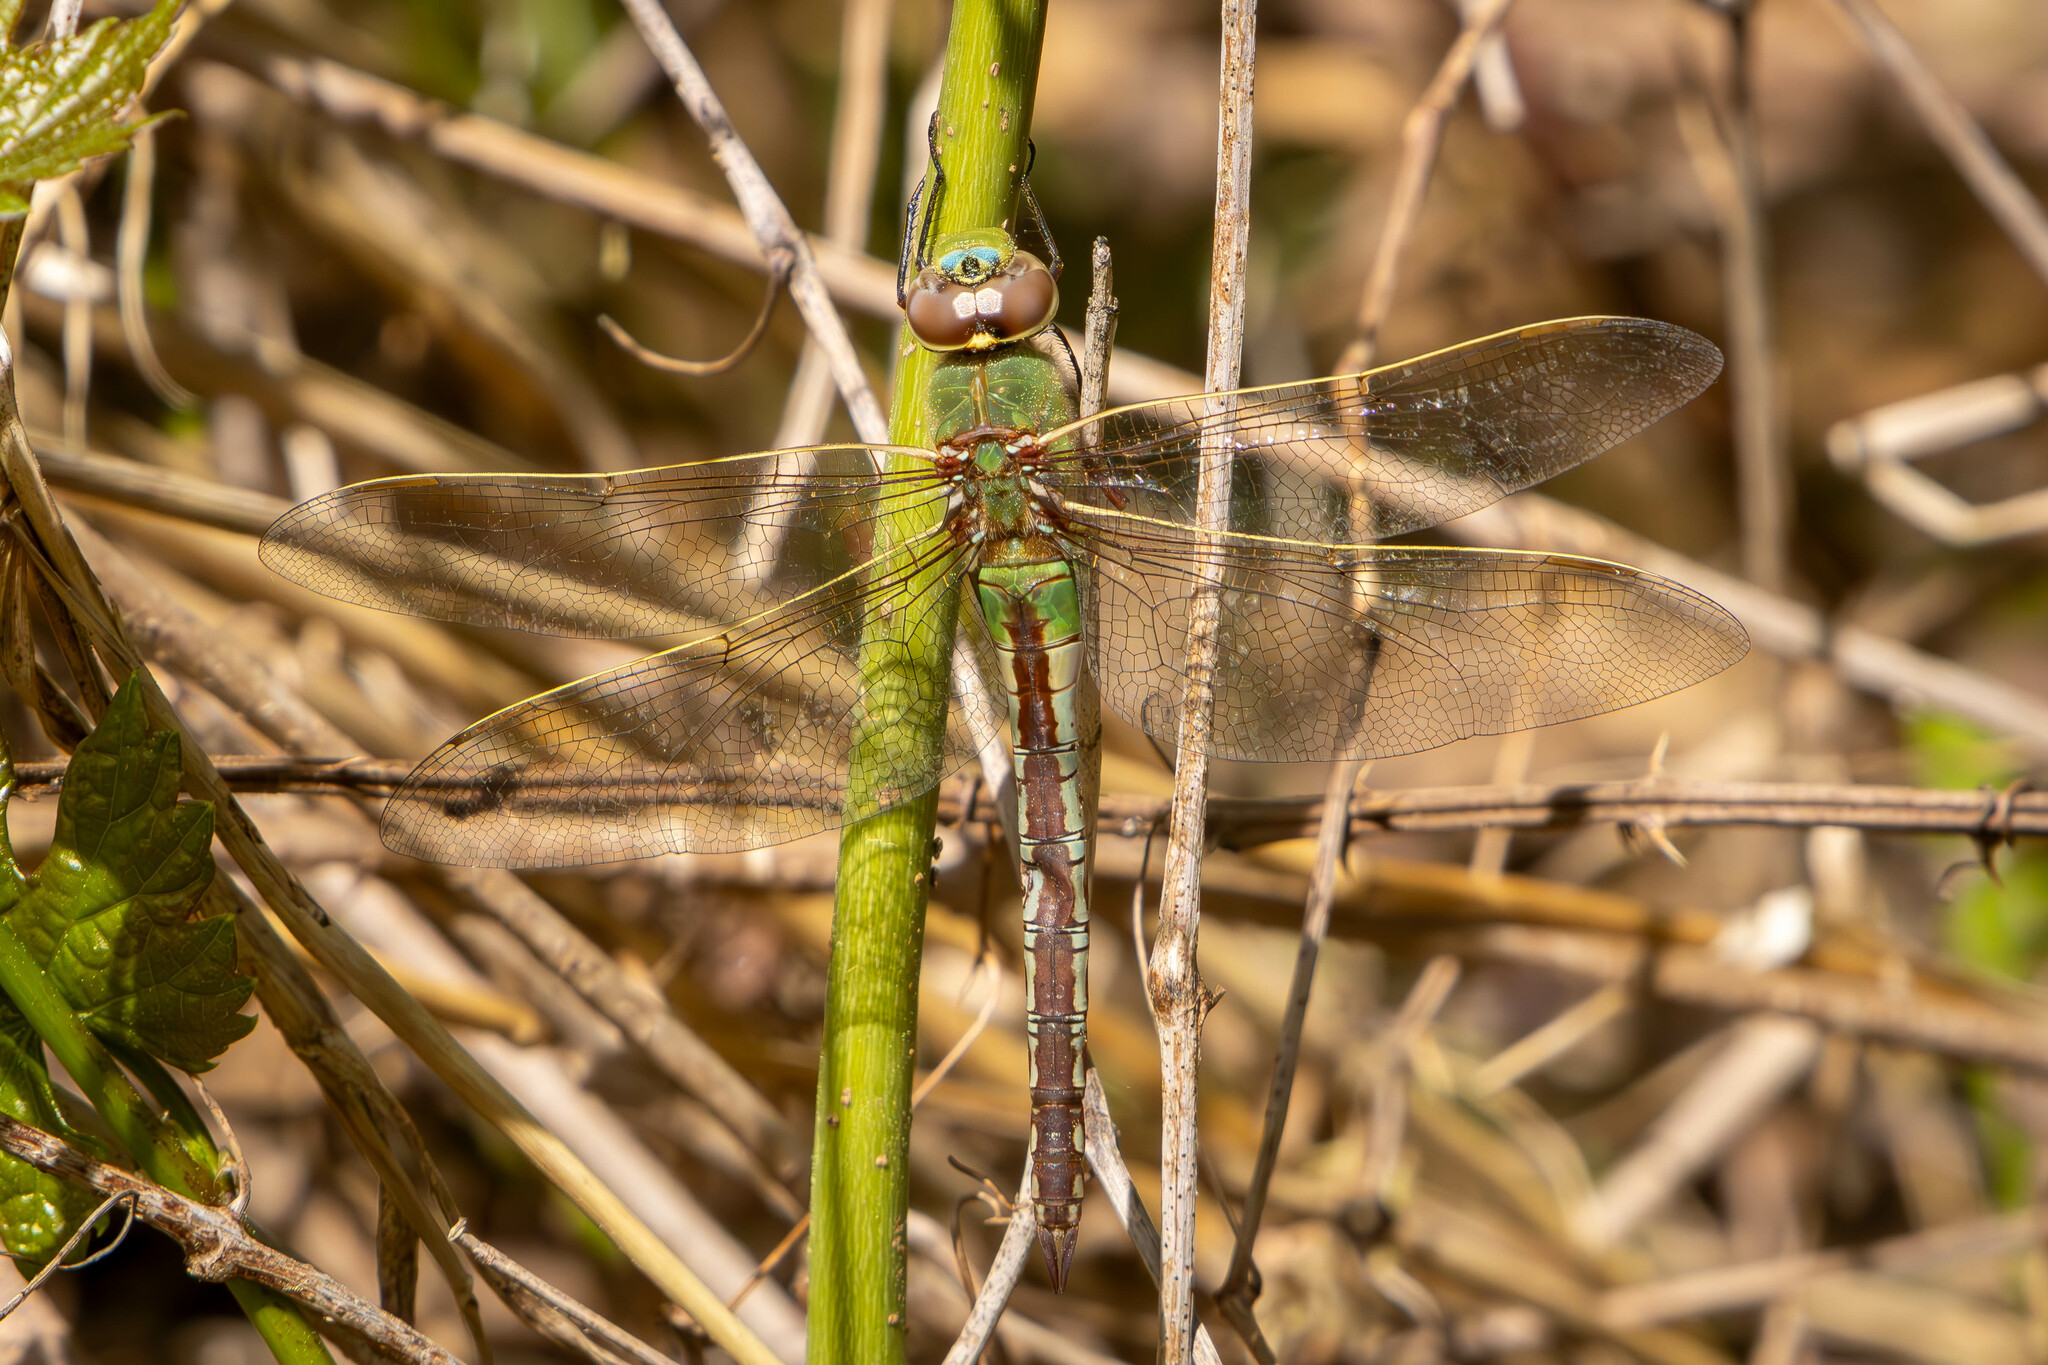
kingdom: Animalia
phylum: Arthropoda
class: Insecta
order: Odonata
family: Aeshnidae
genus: Anax
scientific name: Anax junius
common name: Common green darner
